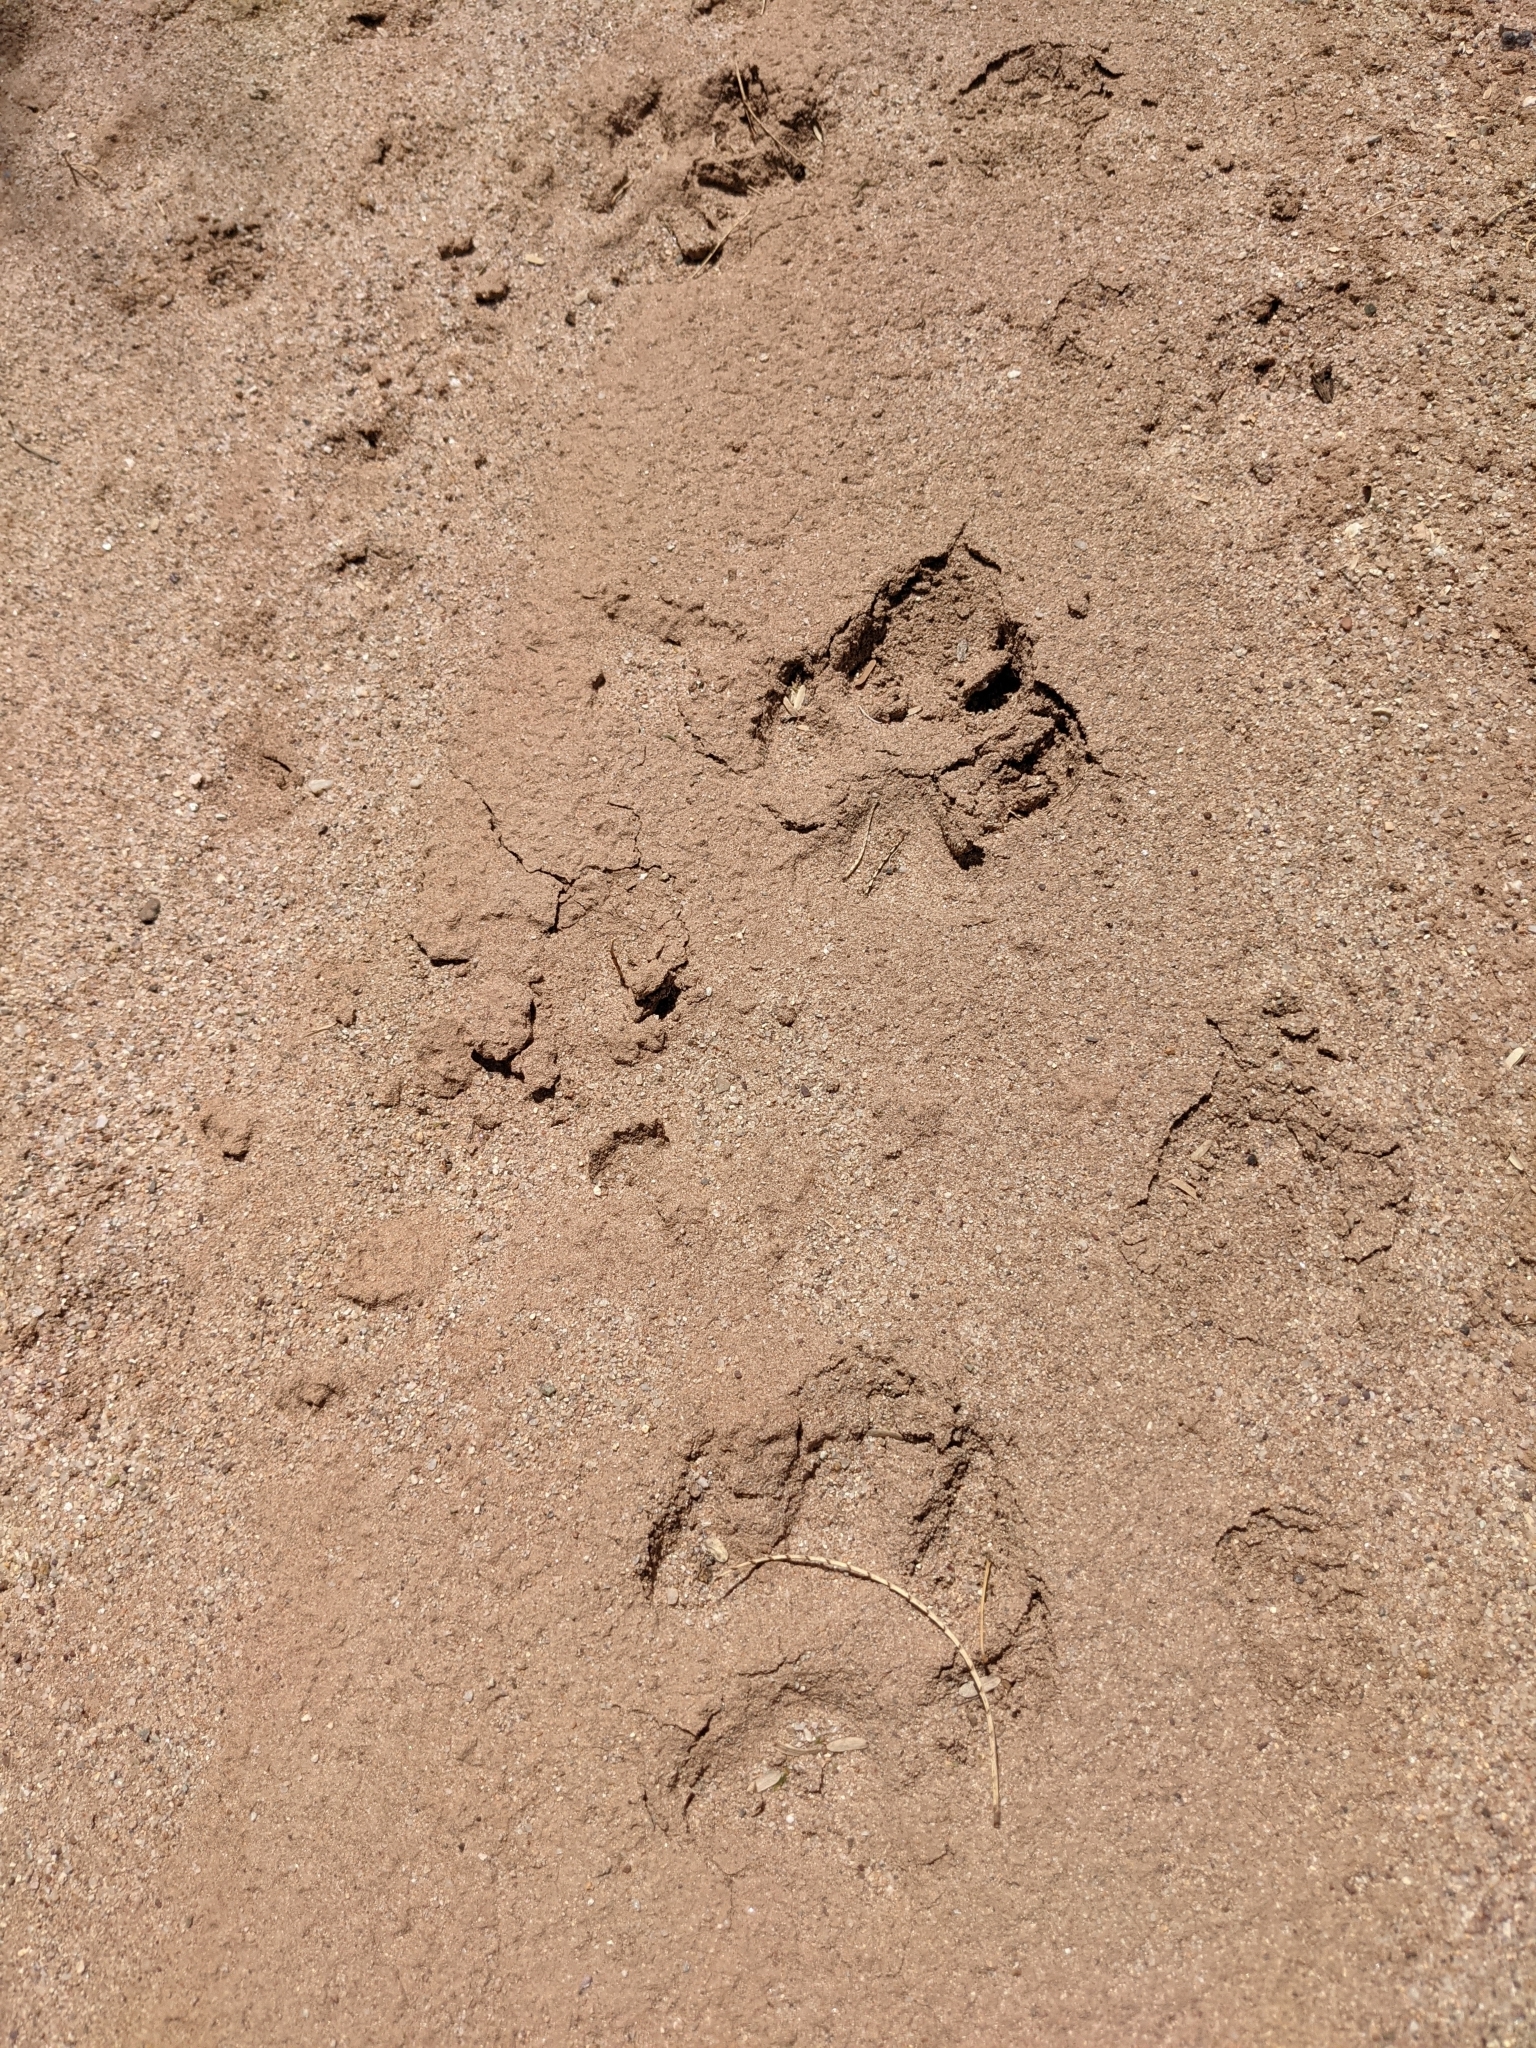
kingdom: Animalia
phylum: Chordata
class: Mammalia
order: Carnivora
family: Canidae
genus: Canis
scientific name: Canis lupus
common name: Gray wolf
